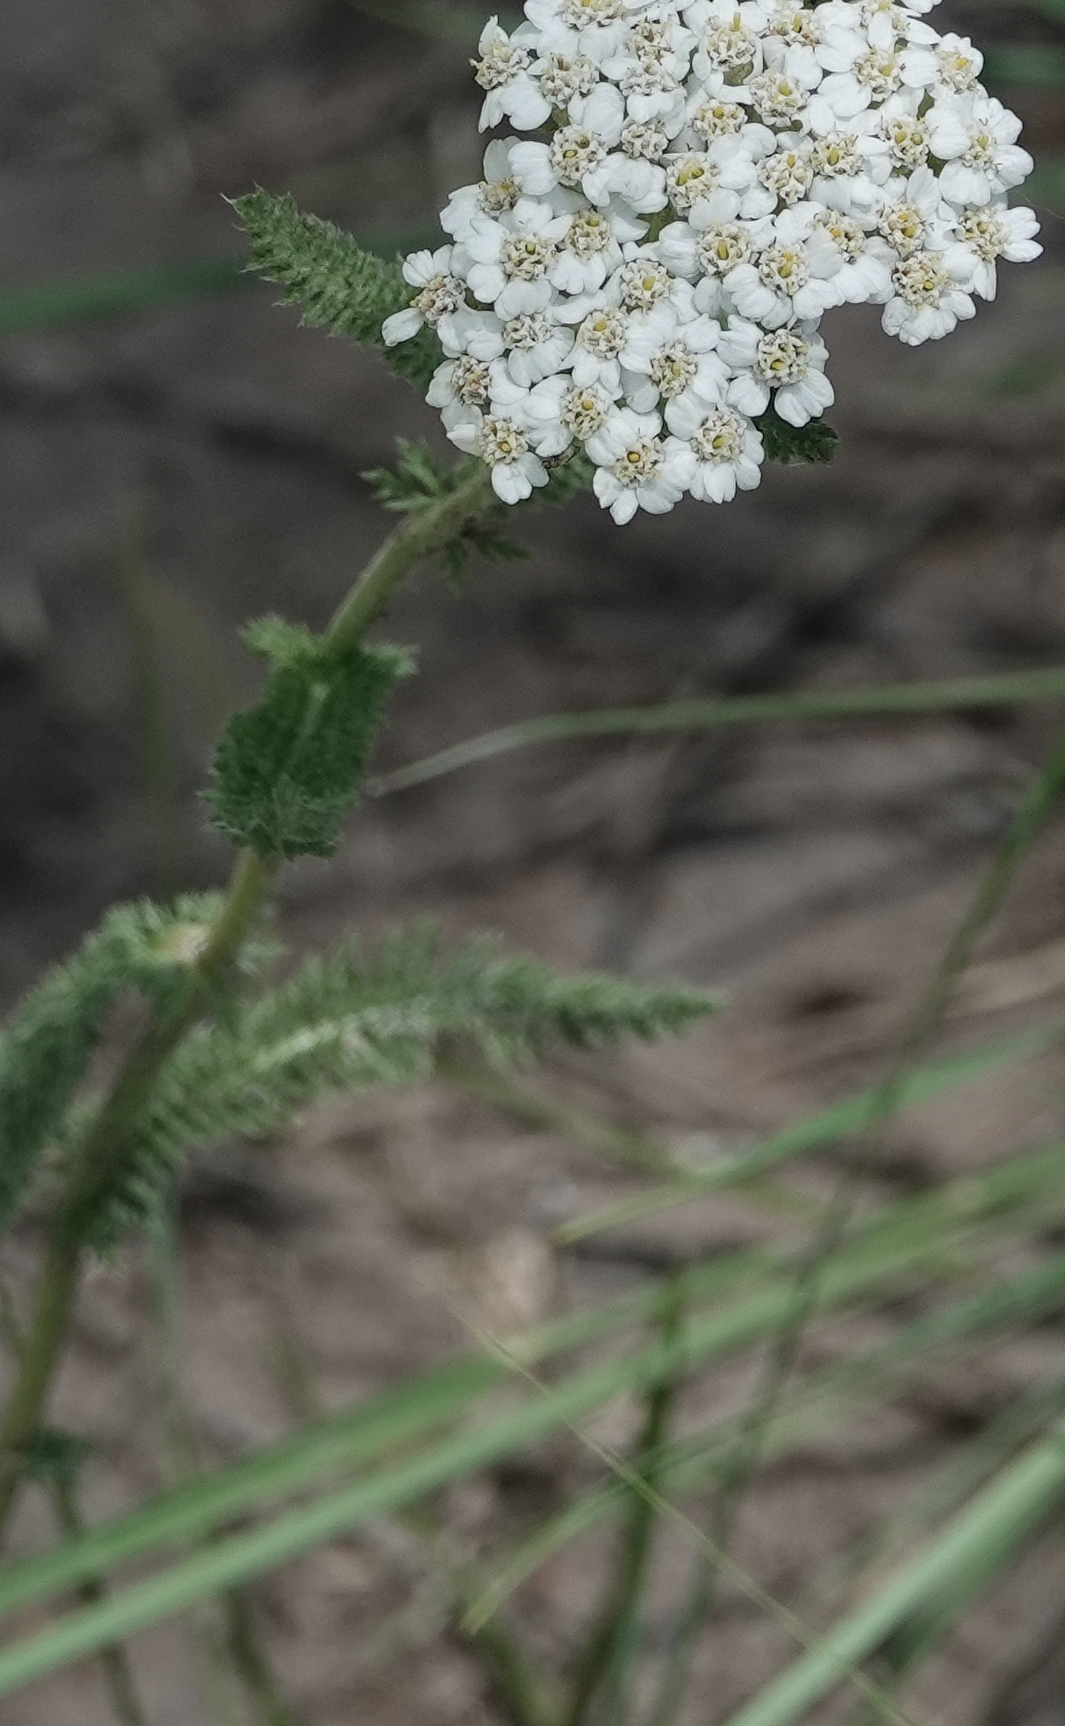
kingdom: Plantae
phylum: Tracheophyta
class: Magnoliopsida
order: Asterales
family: Asteraceae
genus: Achillea
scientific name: Achillea millefolium
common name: Yarrow
